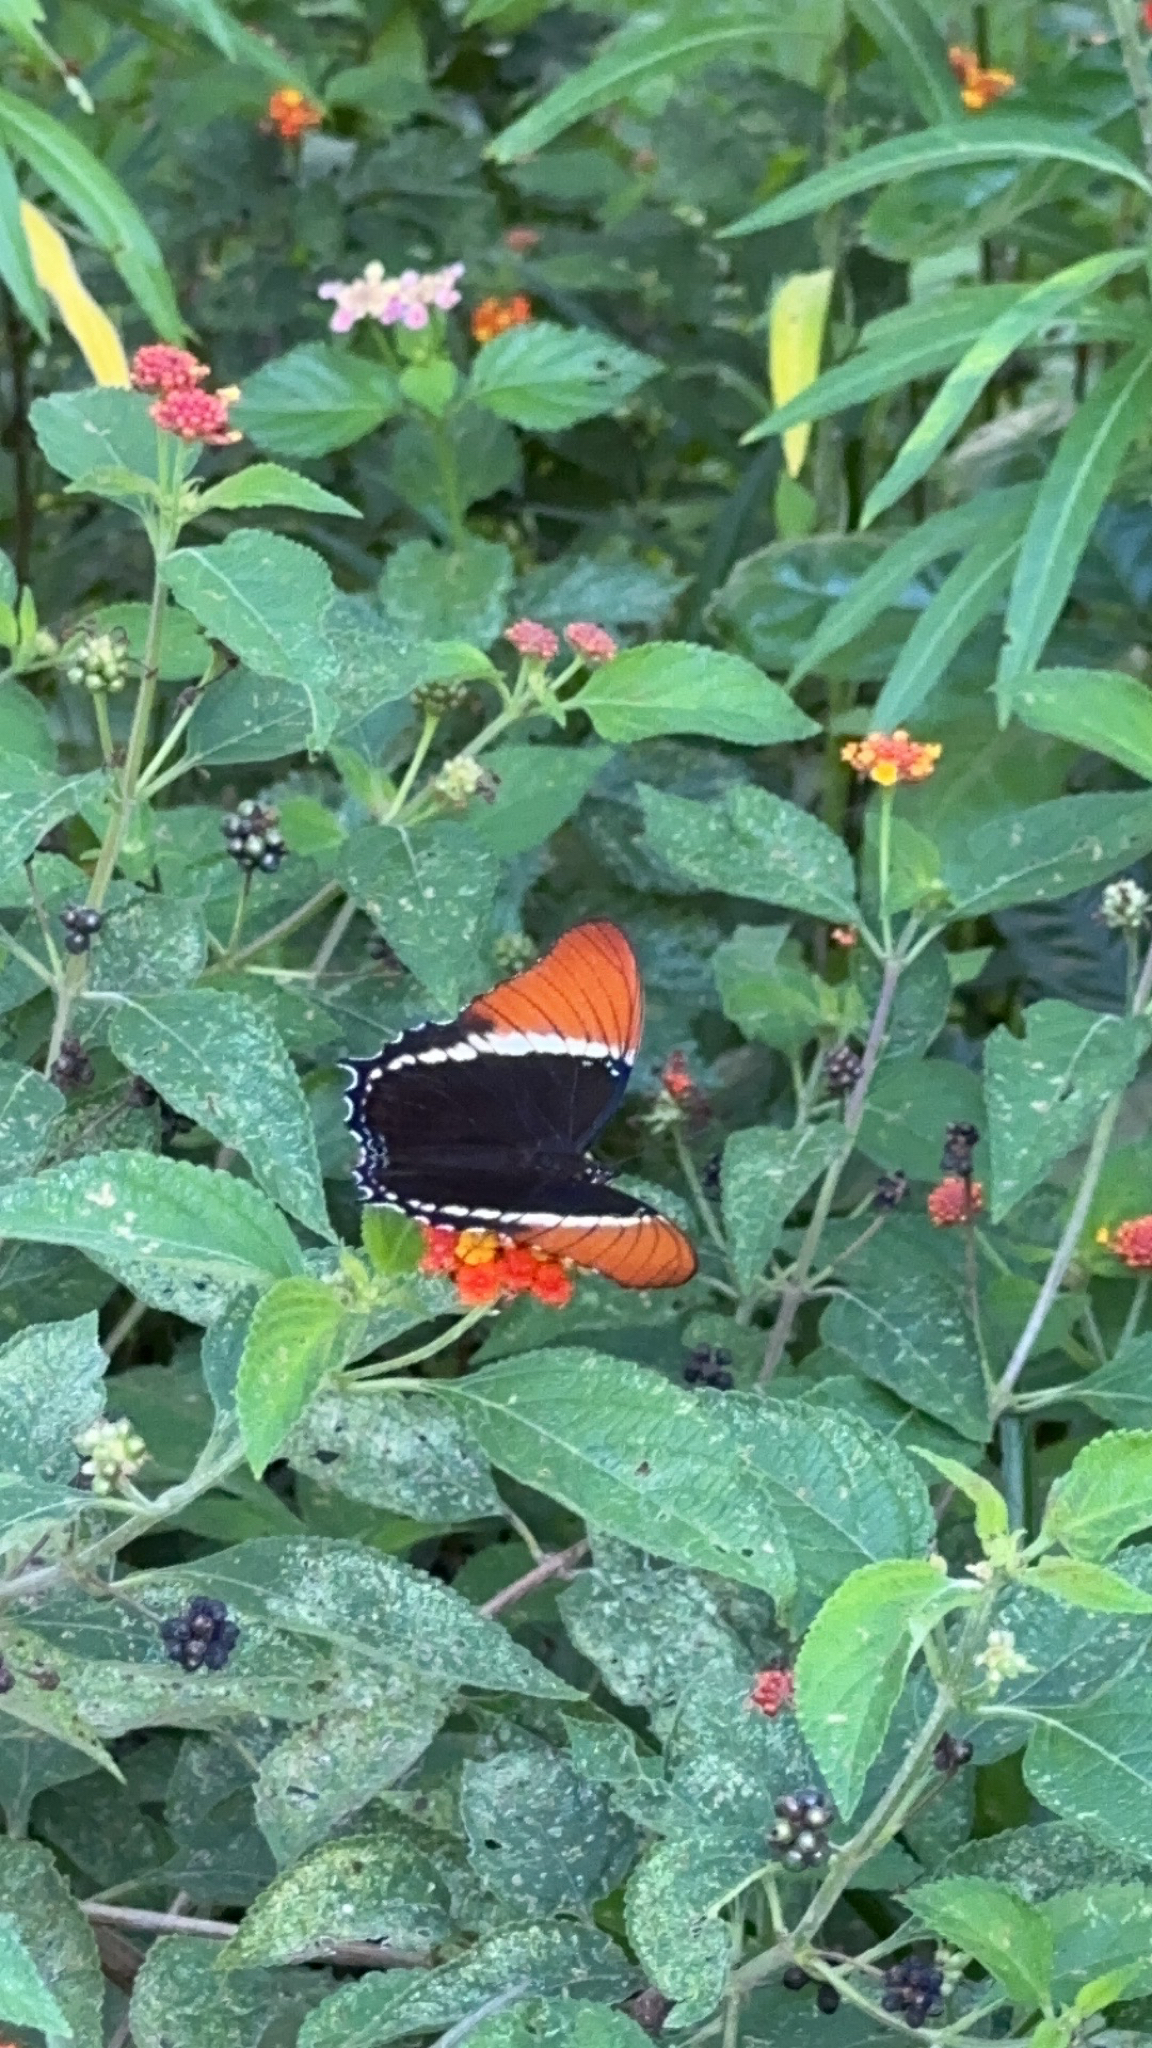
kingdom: Animalia
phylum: Arthropoda
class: Insecta
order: Lepidoptera
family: Nymphalidae
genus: Siproeta
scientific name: Siproeta epaphus
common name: Rusty-tipped page
